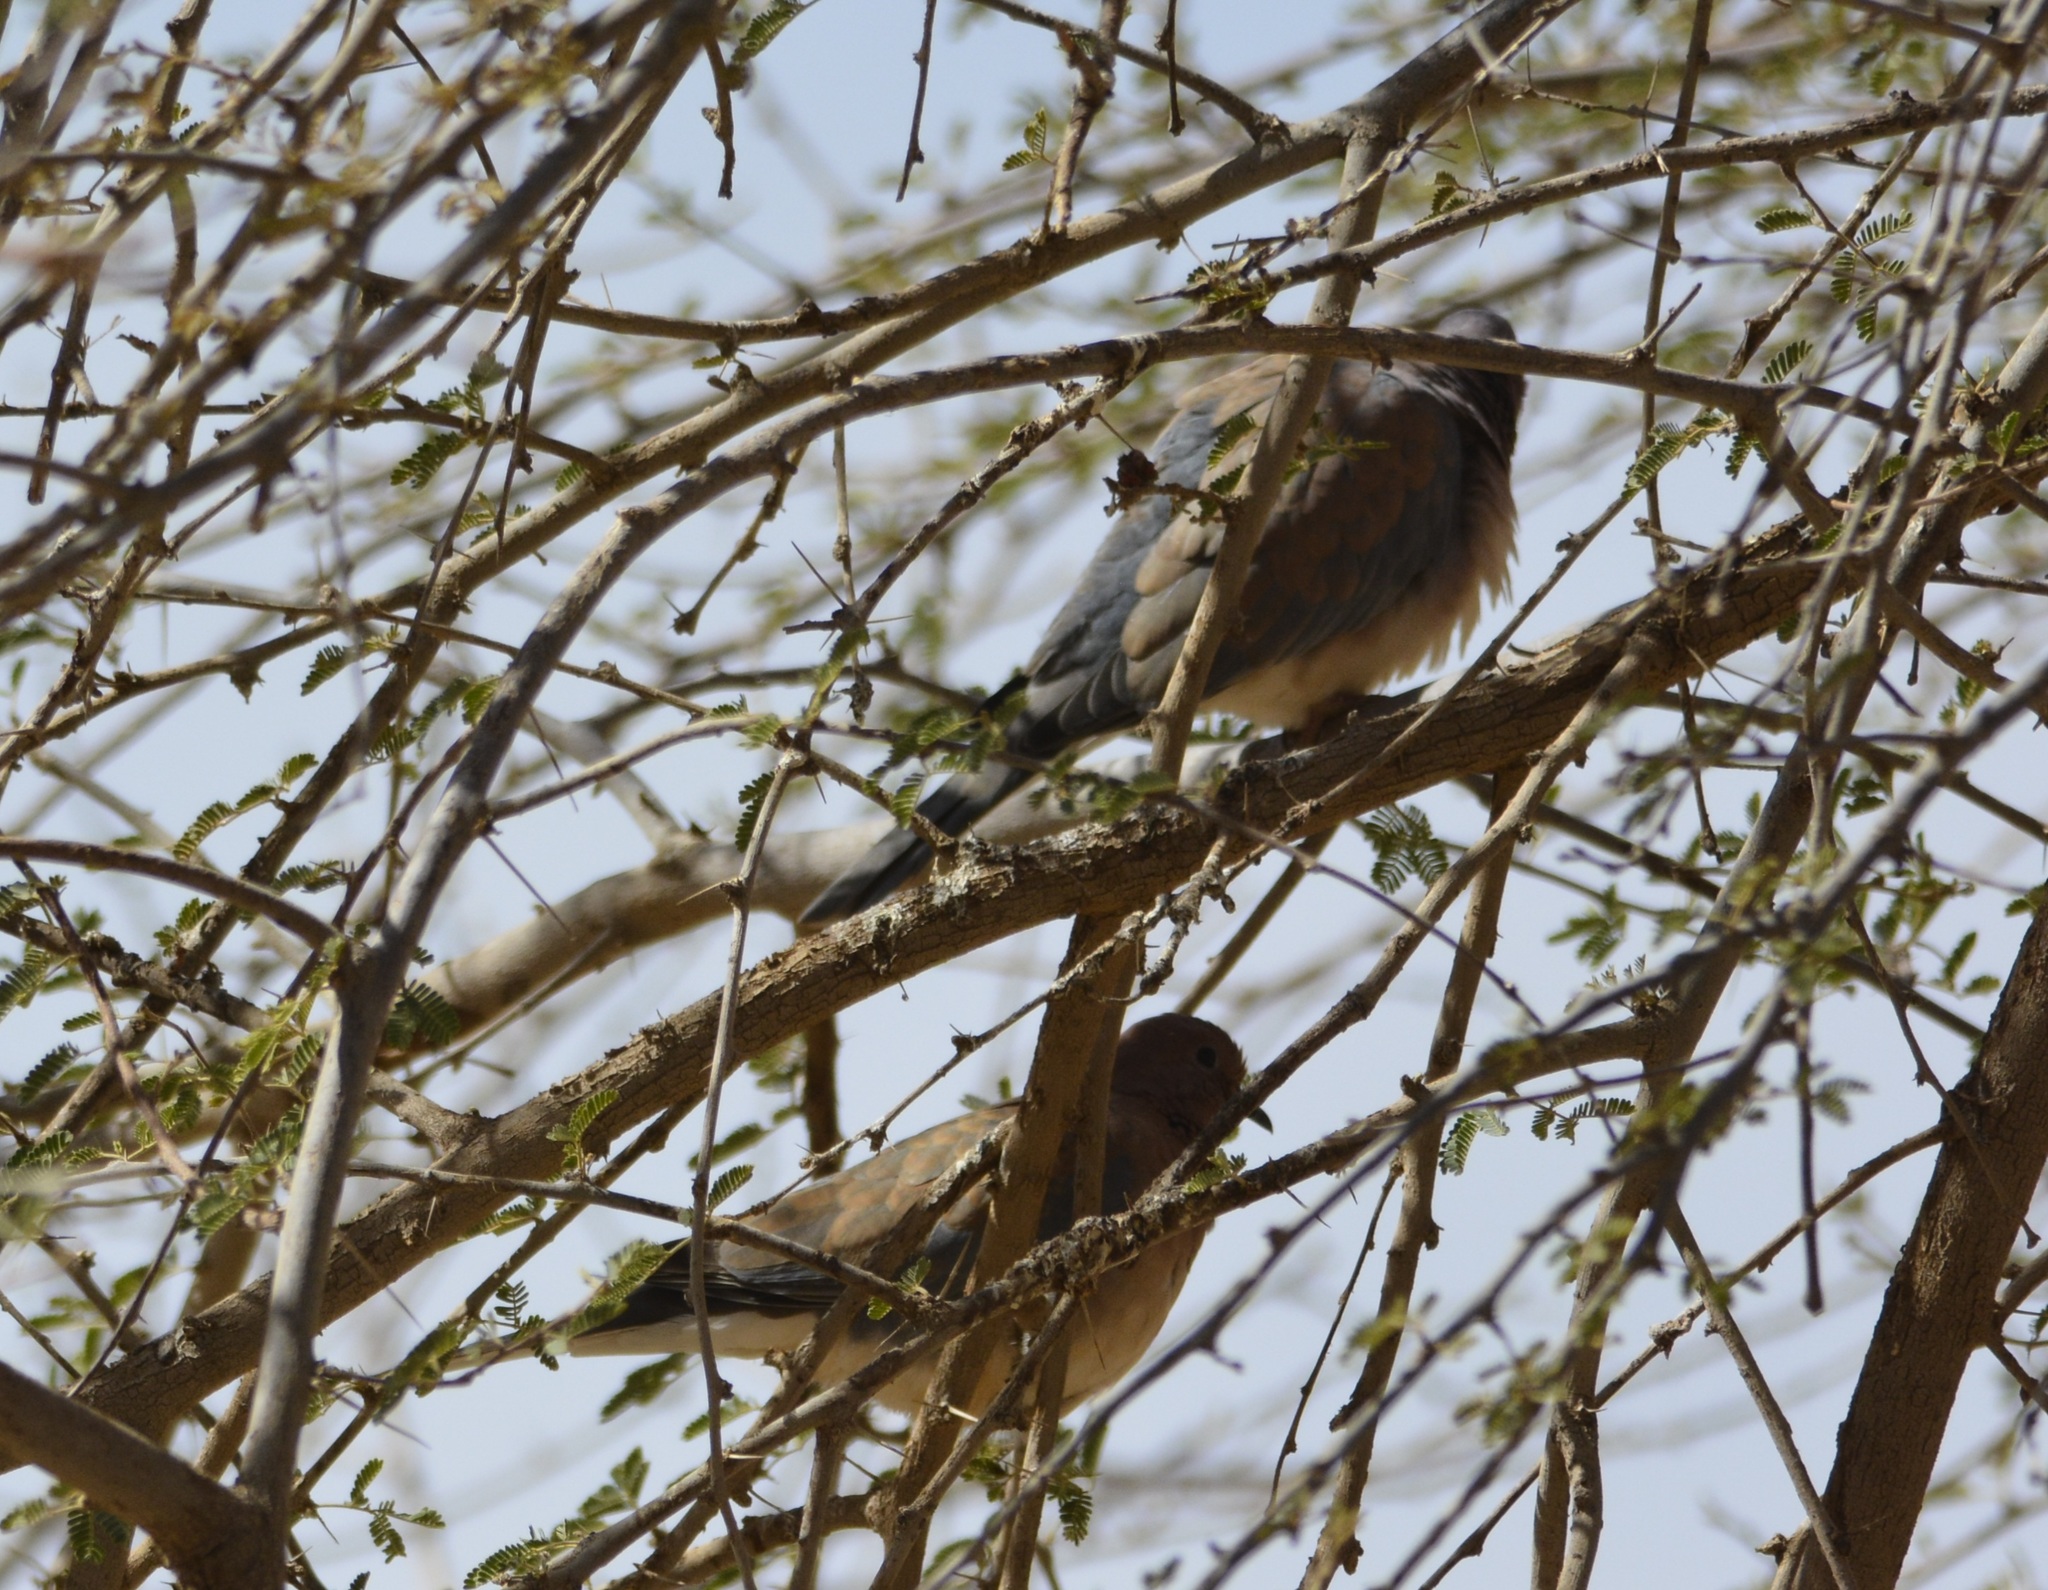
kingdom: Animalia
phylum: Chordata
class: Aves
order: Columbiformes
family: Columbidae
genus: Spilopelia
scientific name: Spilopelia senegalensis
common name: Laughing dove
